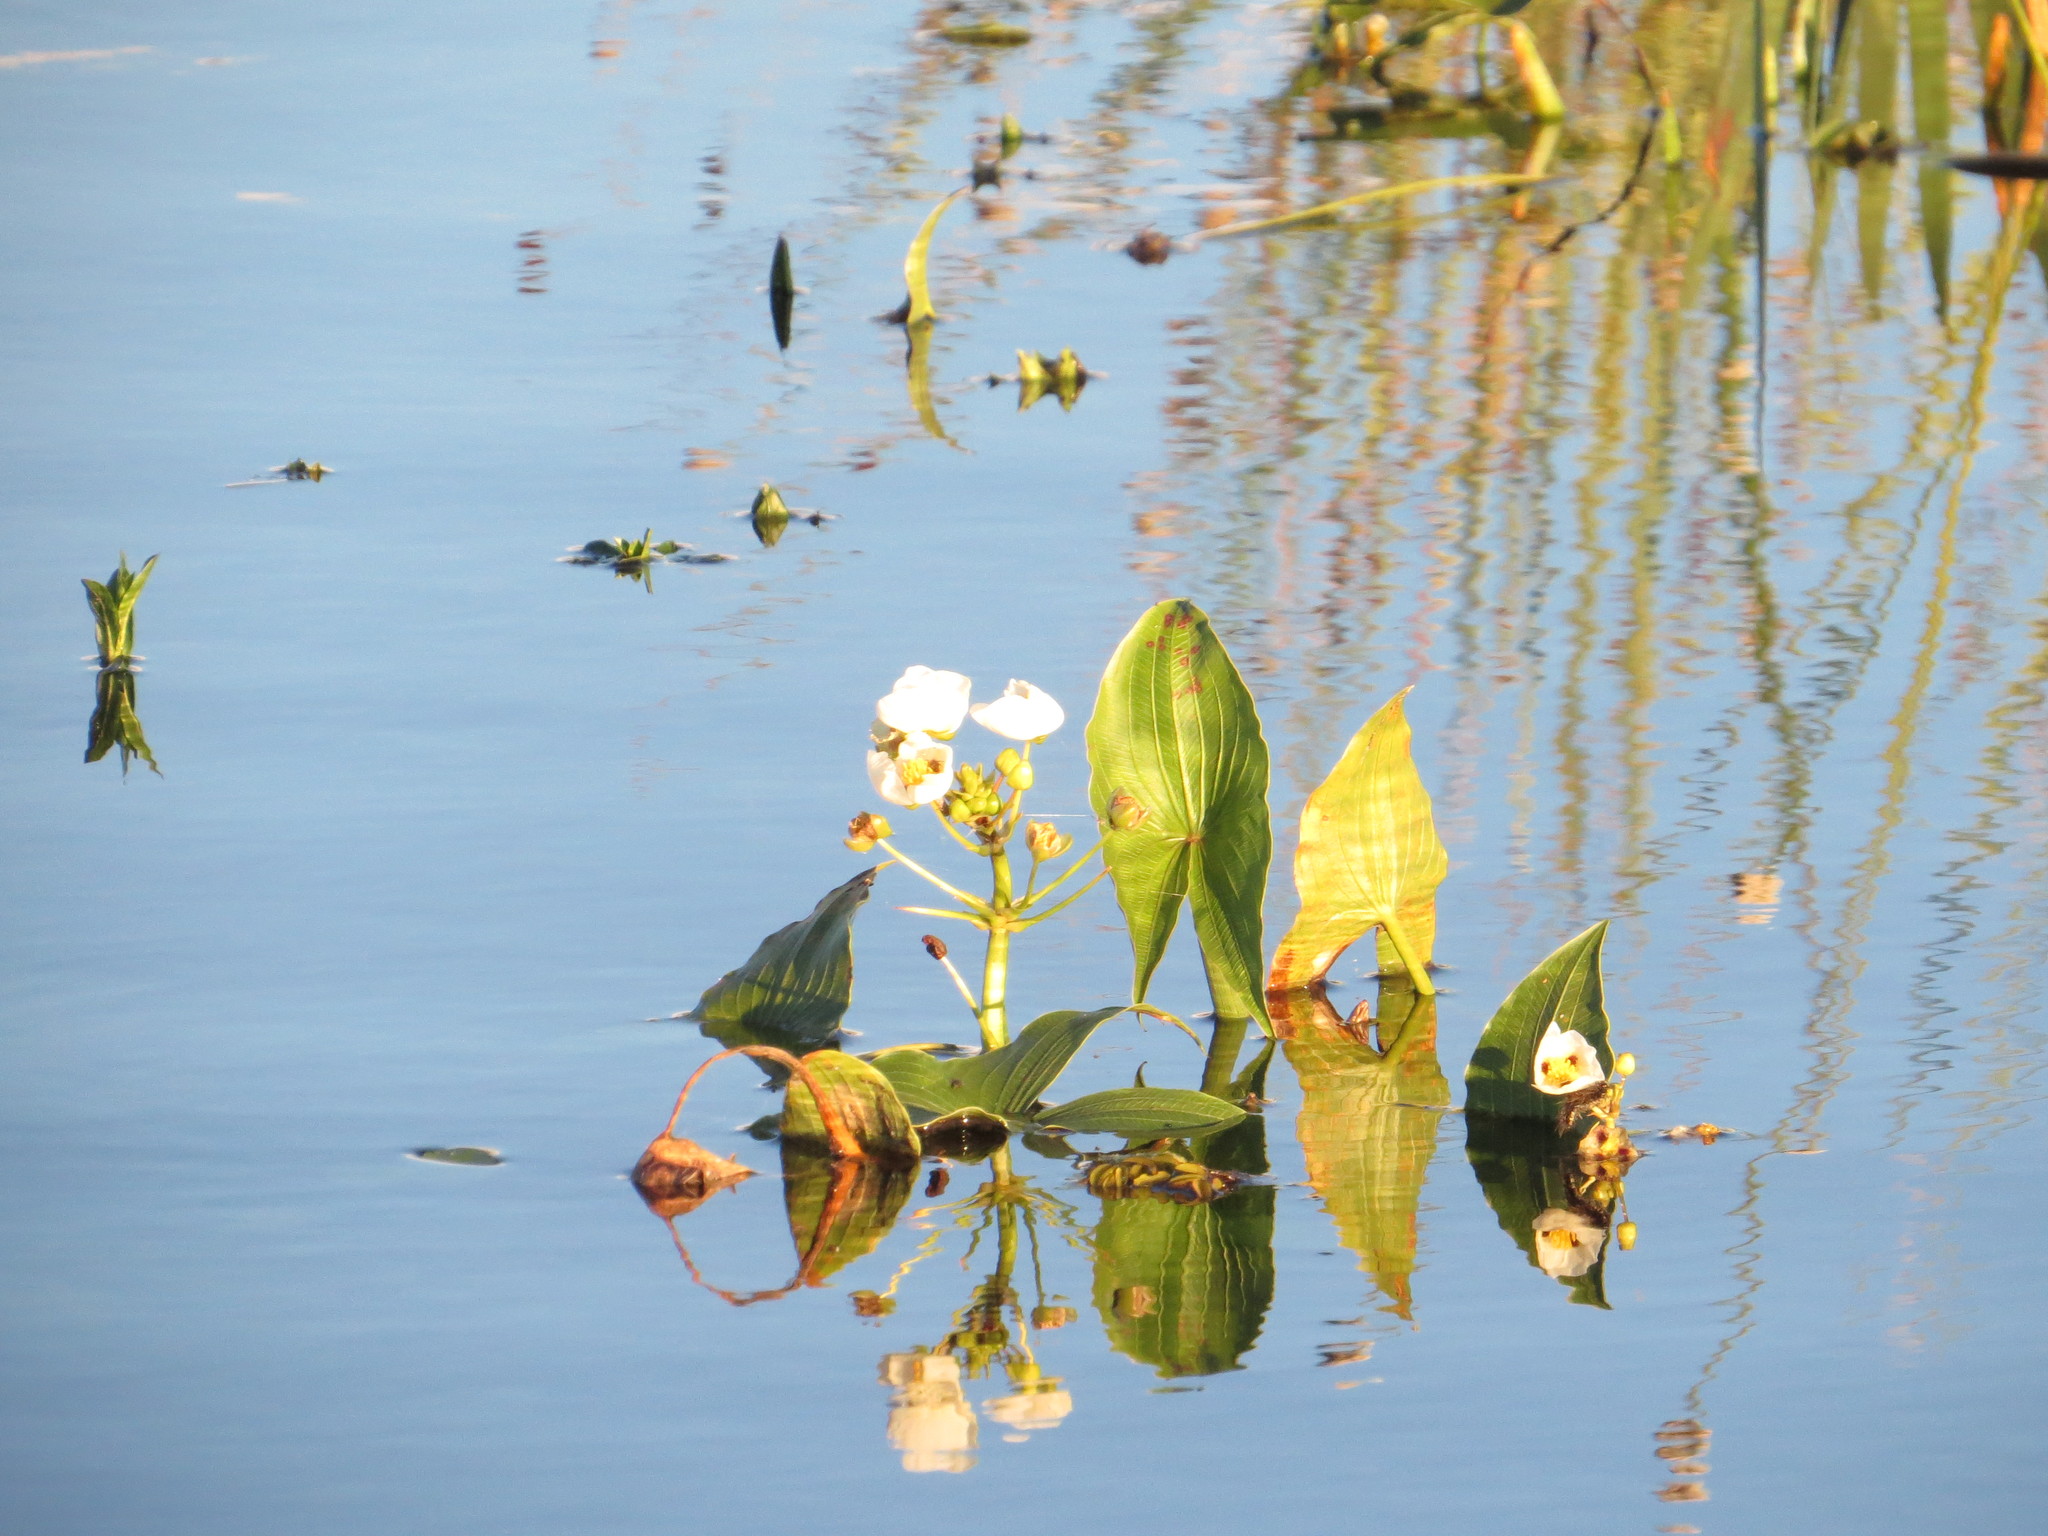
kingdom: Plantae
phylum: Tracheophyta
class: Liliopsida
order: Alismatales
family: Alismataceae
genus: Sagittaria
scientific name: Sagittaria montevidensis
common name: Giant arrowhead
